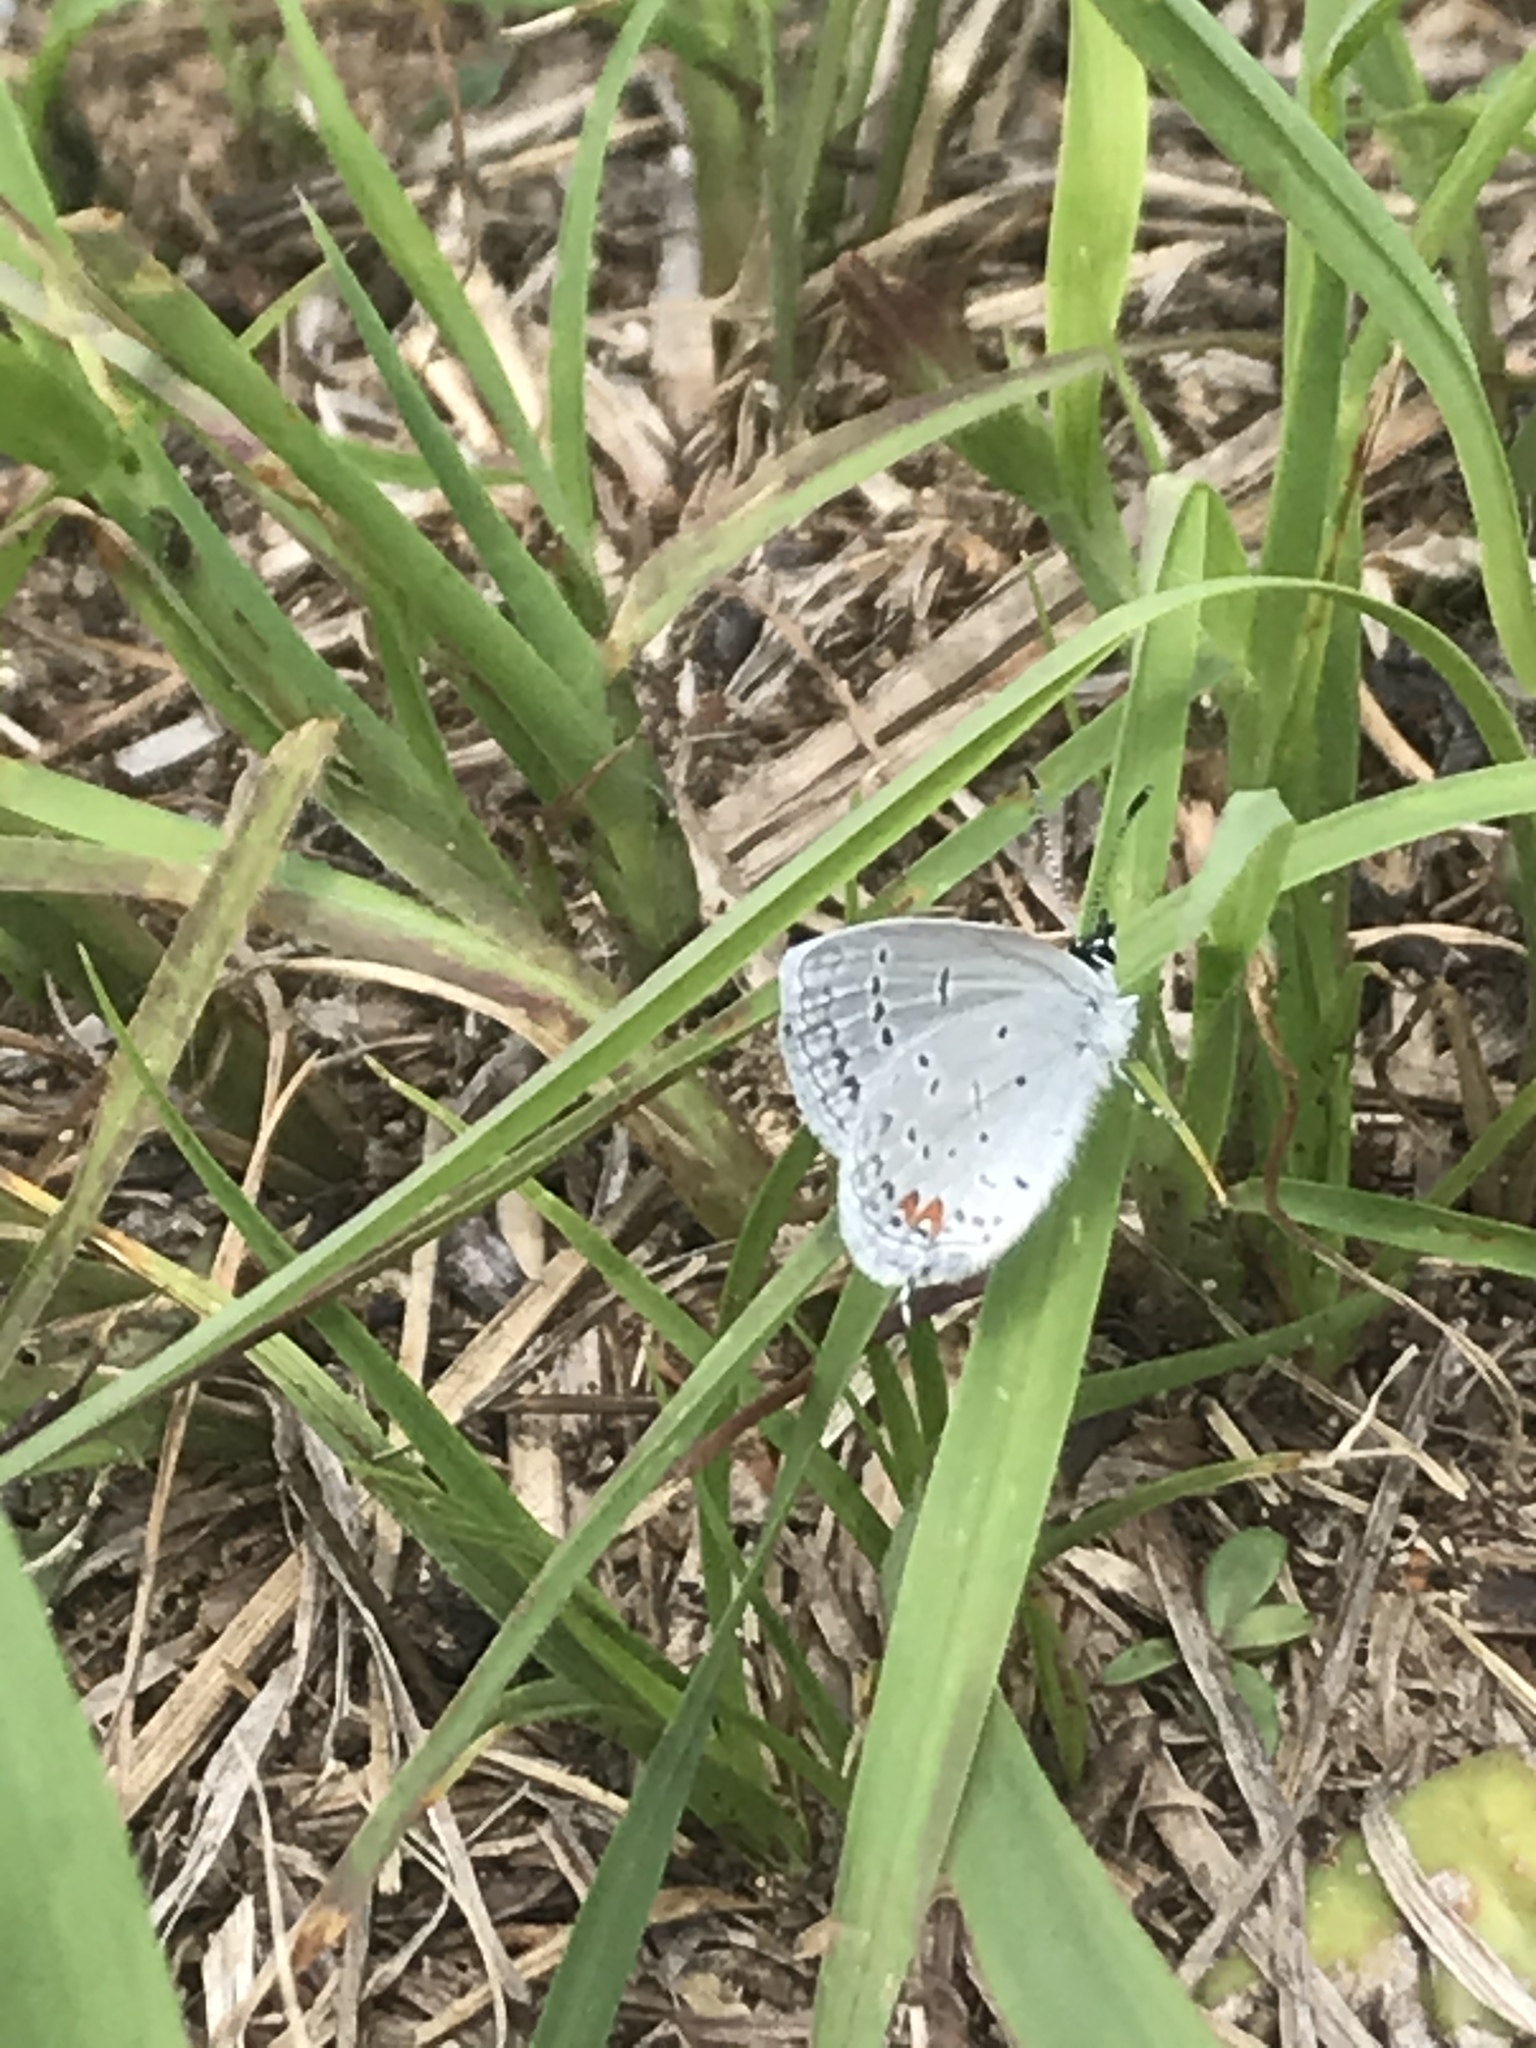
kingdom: Animalia
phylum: Arthropoda
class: Insecta
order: Lepidoptera
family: Lycaenidae
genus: Elkalyce
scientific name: Elkalyce comyntas
